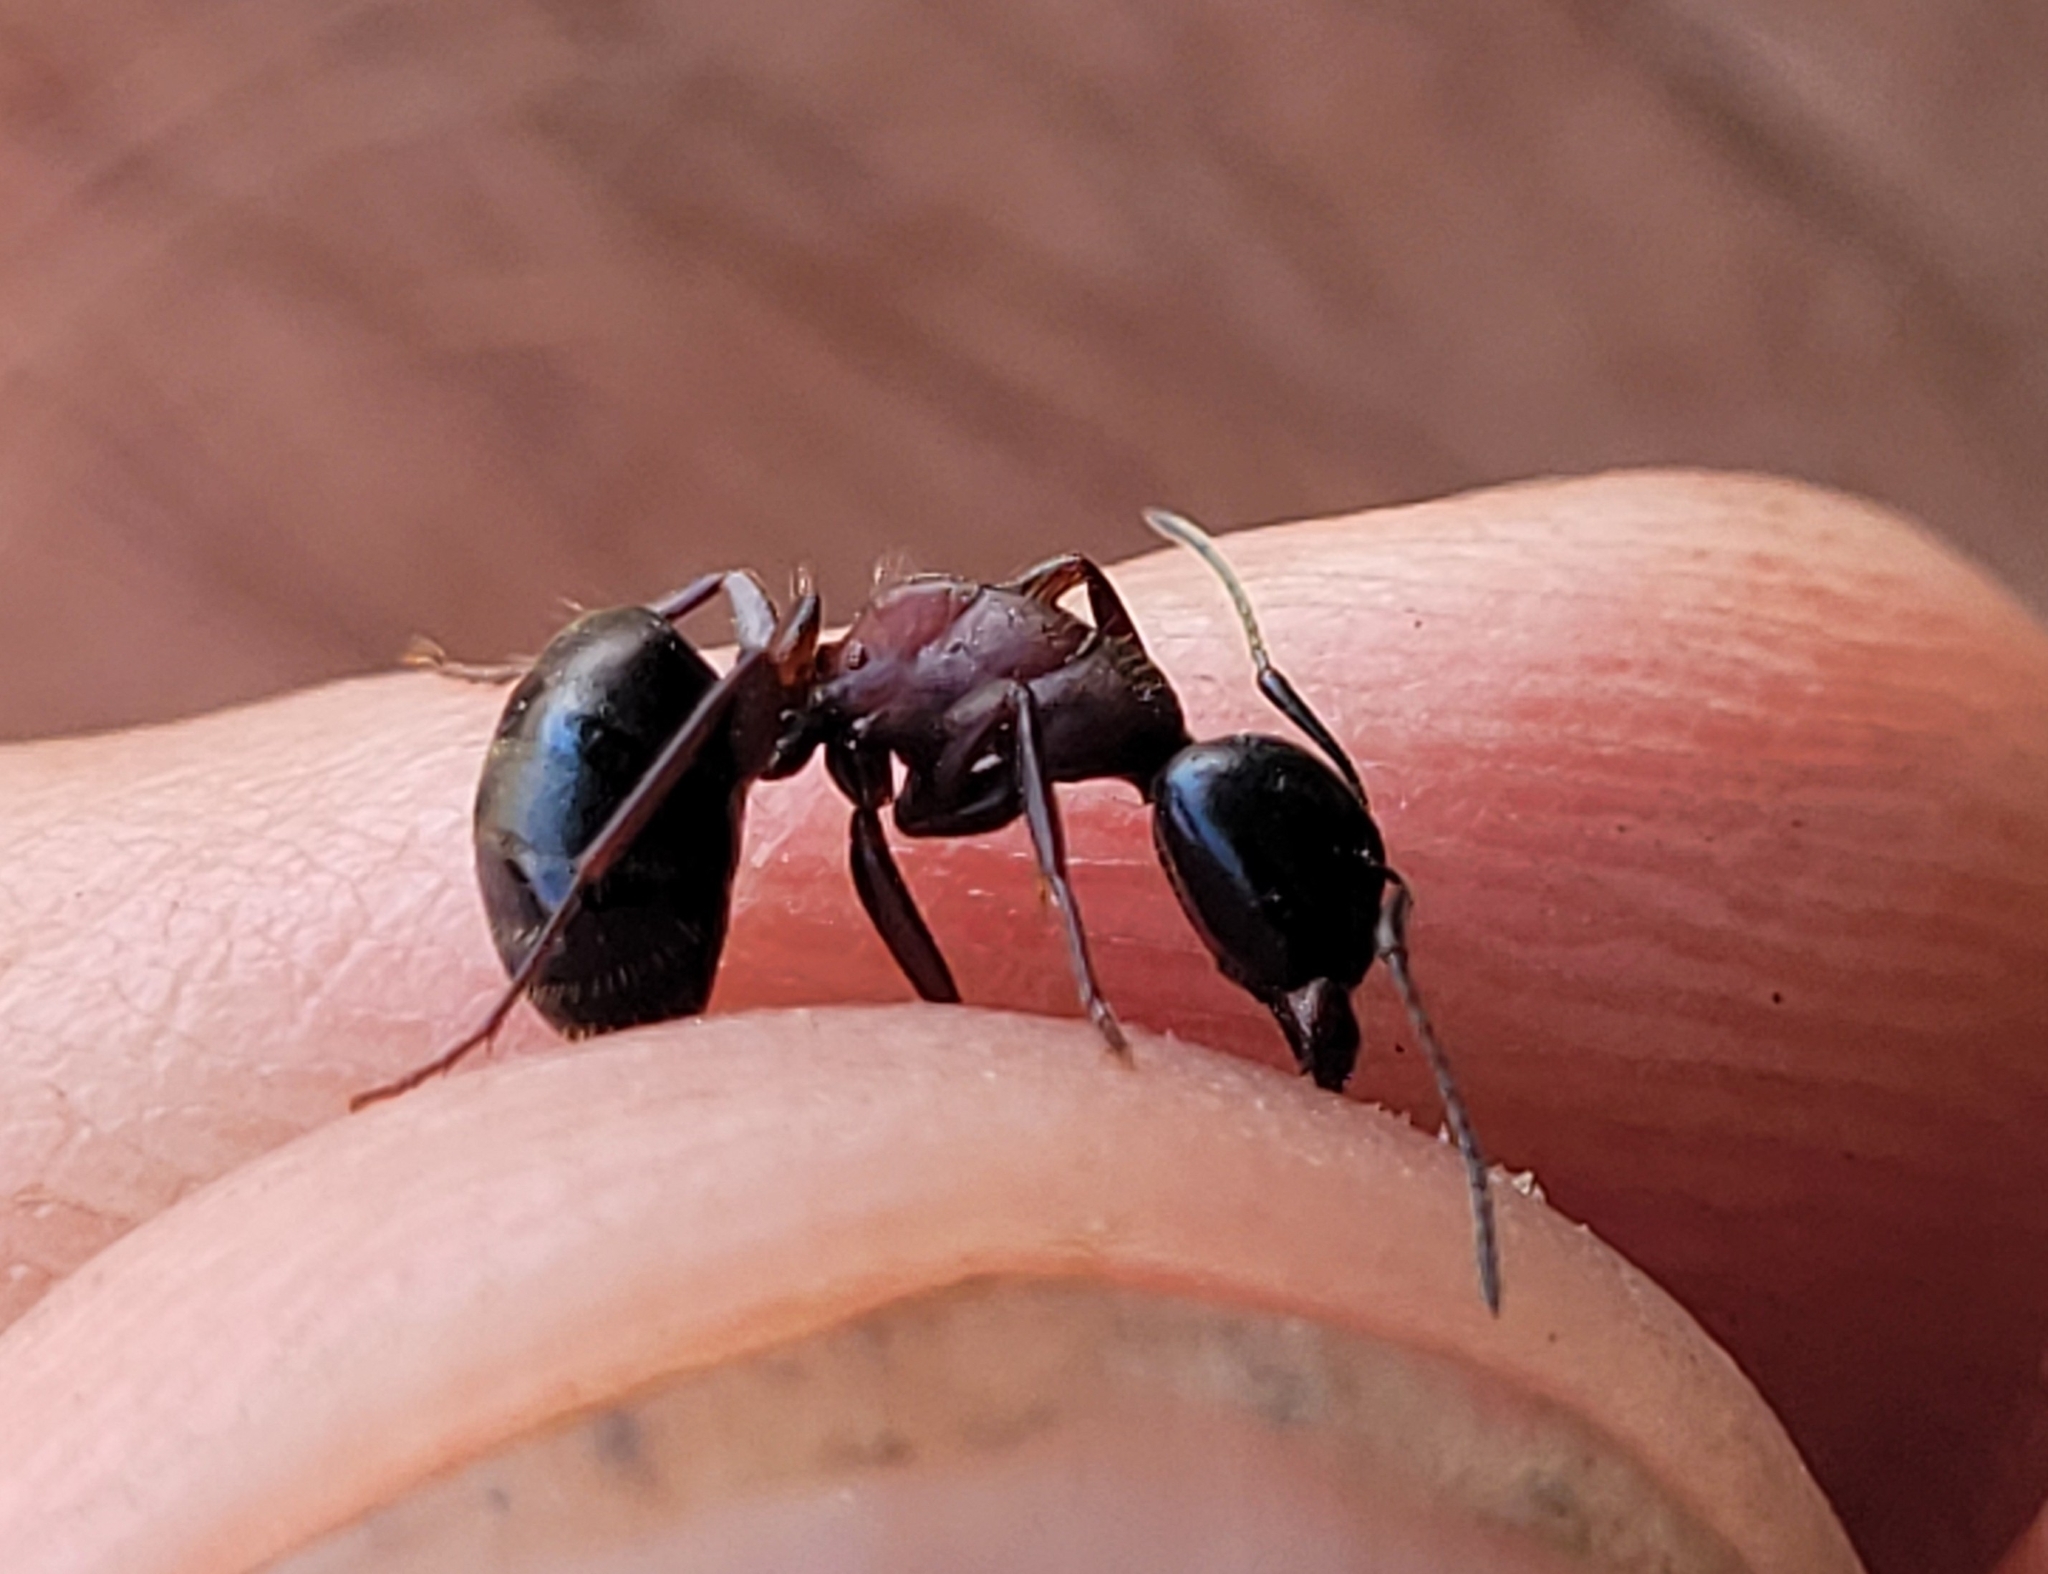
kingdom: Animalia
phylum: Arthropoda
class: Insecta
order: Hymenoptera
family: Formicidae
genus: Camponotus
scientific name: Camponotus novaeboracensis
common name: New york carpenter ant
